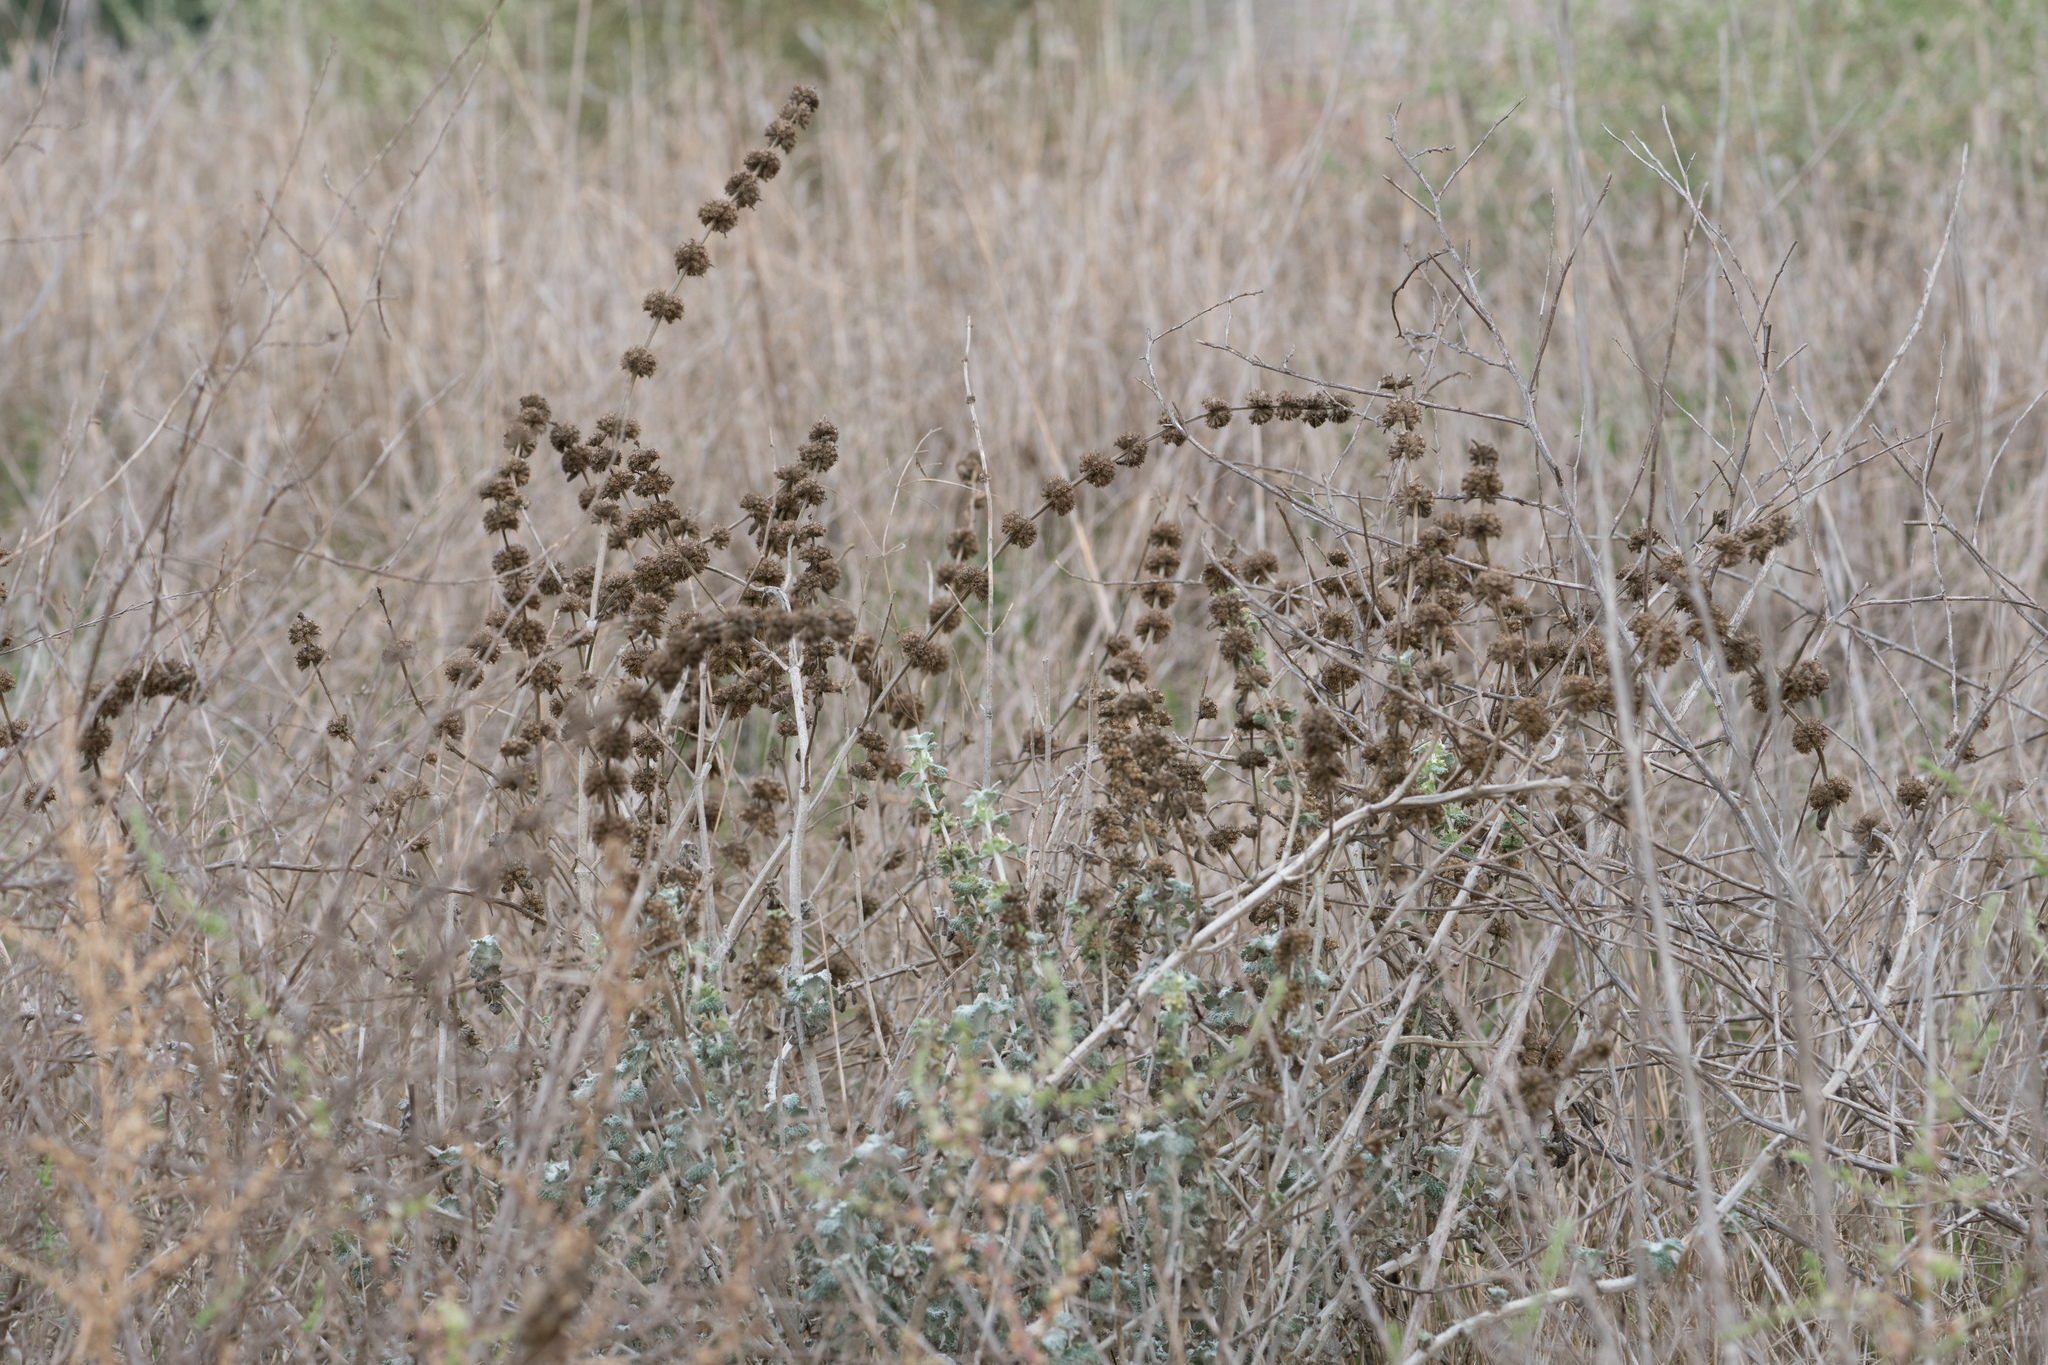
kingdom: Plantae
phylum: Tracheophyta
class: Magnoliopsida
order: Lamiales
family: Lamiaceae
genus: Marrubium
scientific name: Marrubium vulgare
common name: Horehound
